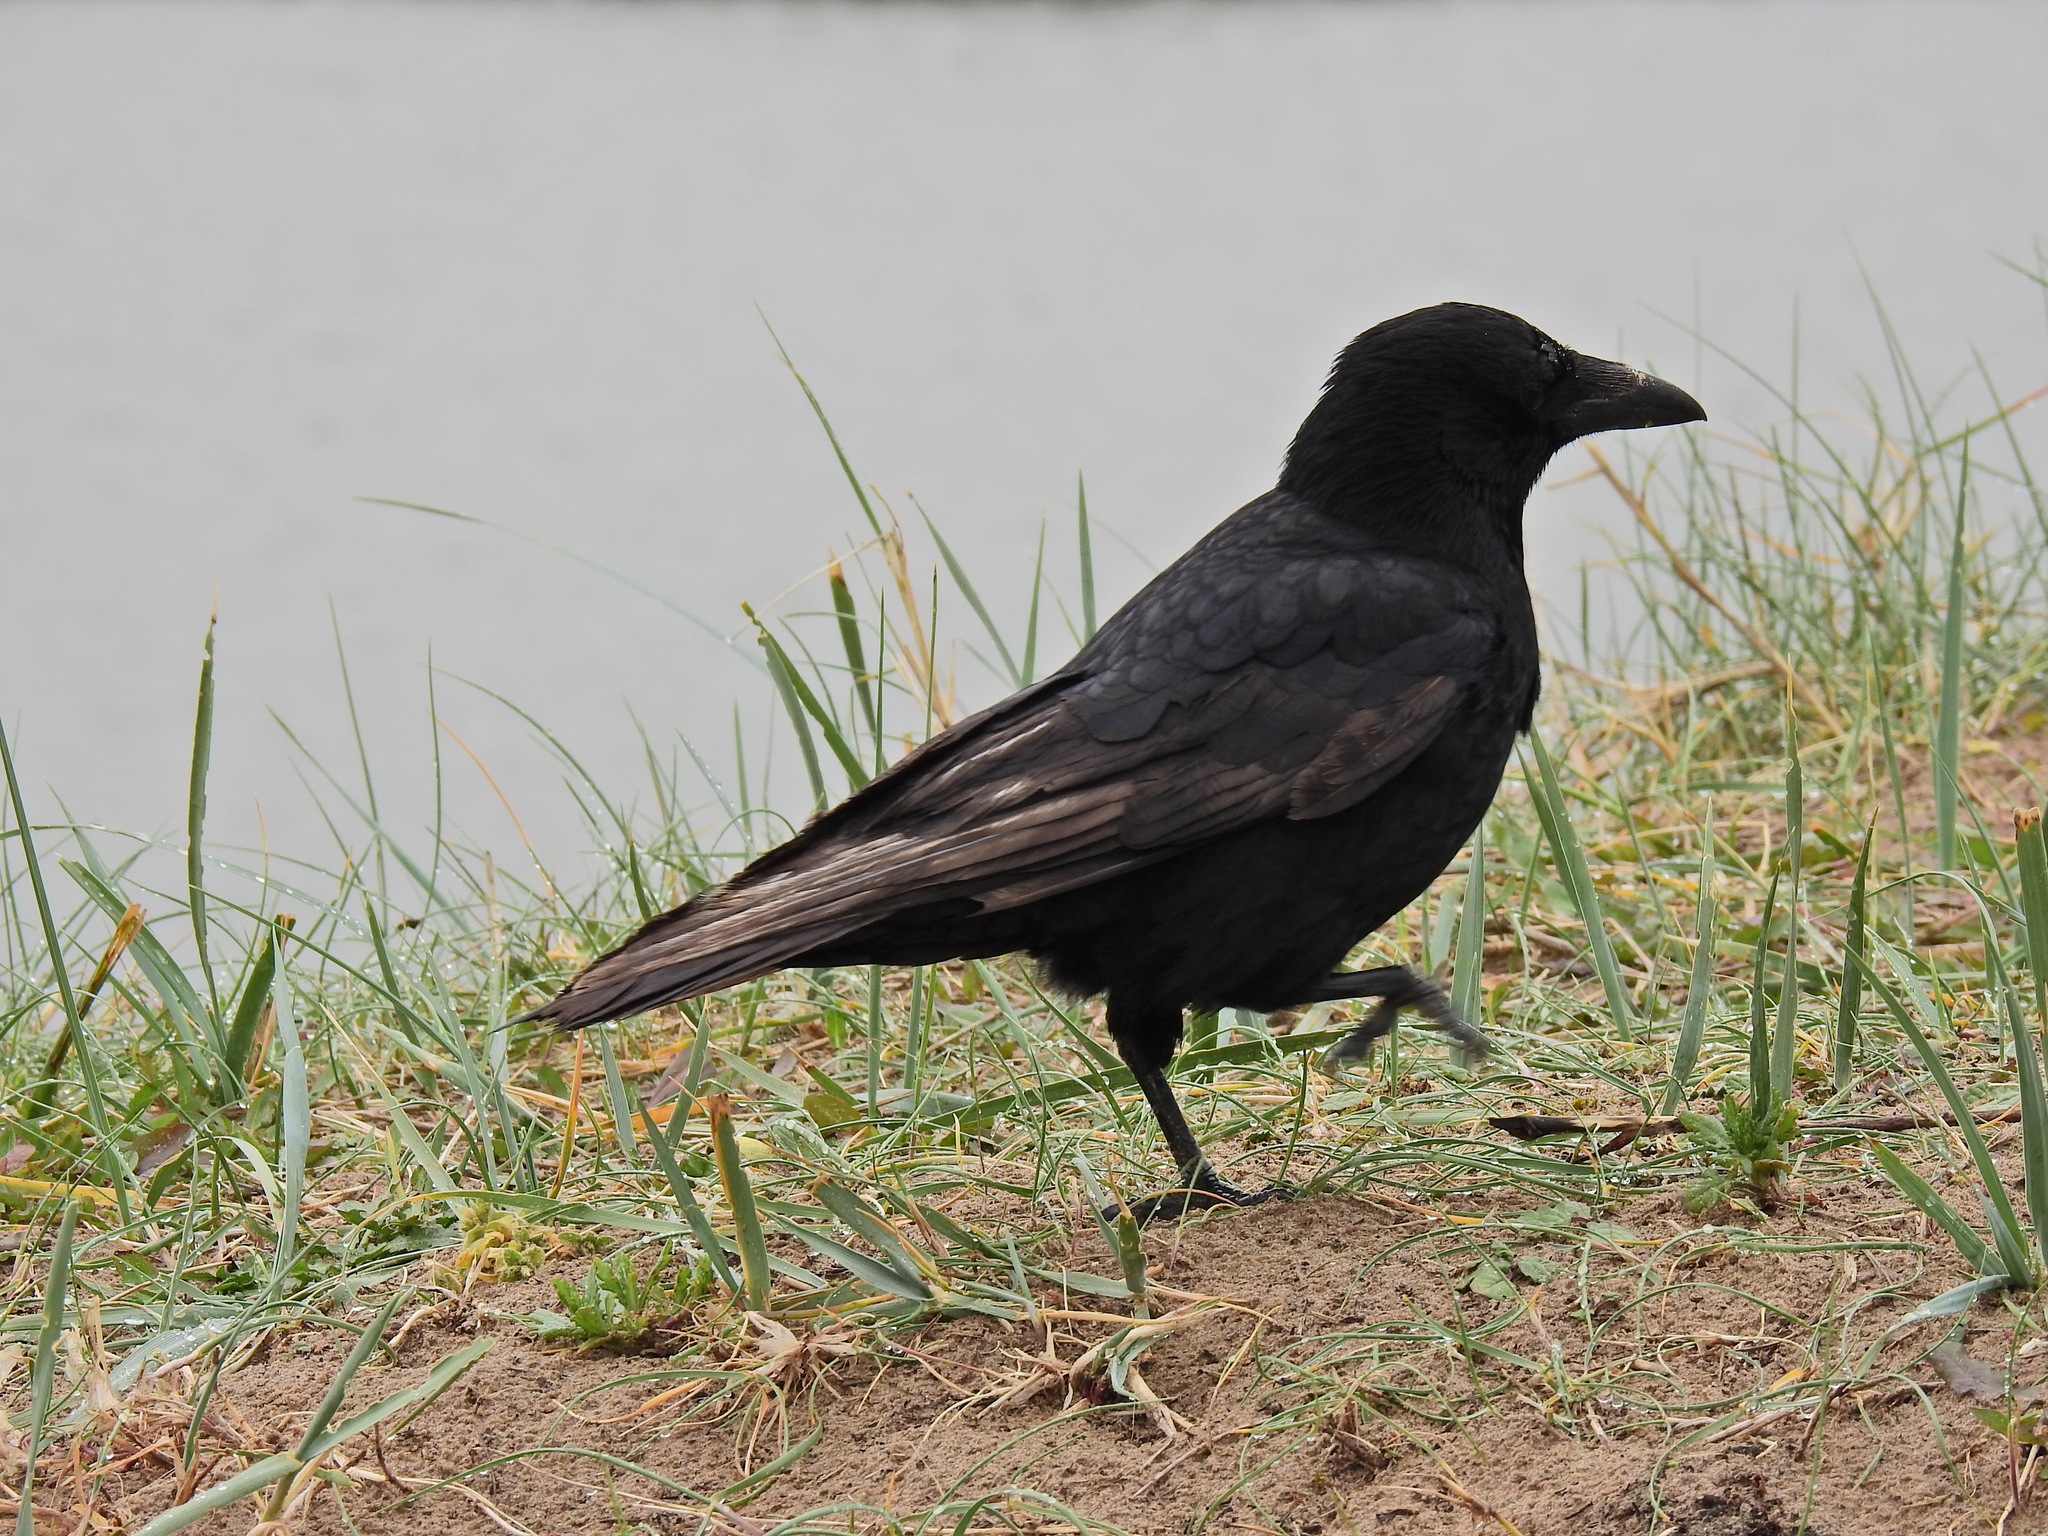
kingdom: Animalia
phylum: Chordata
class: Aves
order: Passeriformes
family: Corvidae
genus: Corvus
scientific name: Corvus corone
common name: Carrion crow
